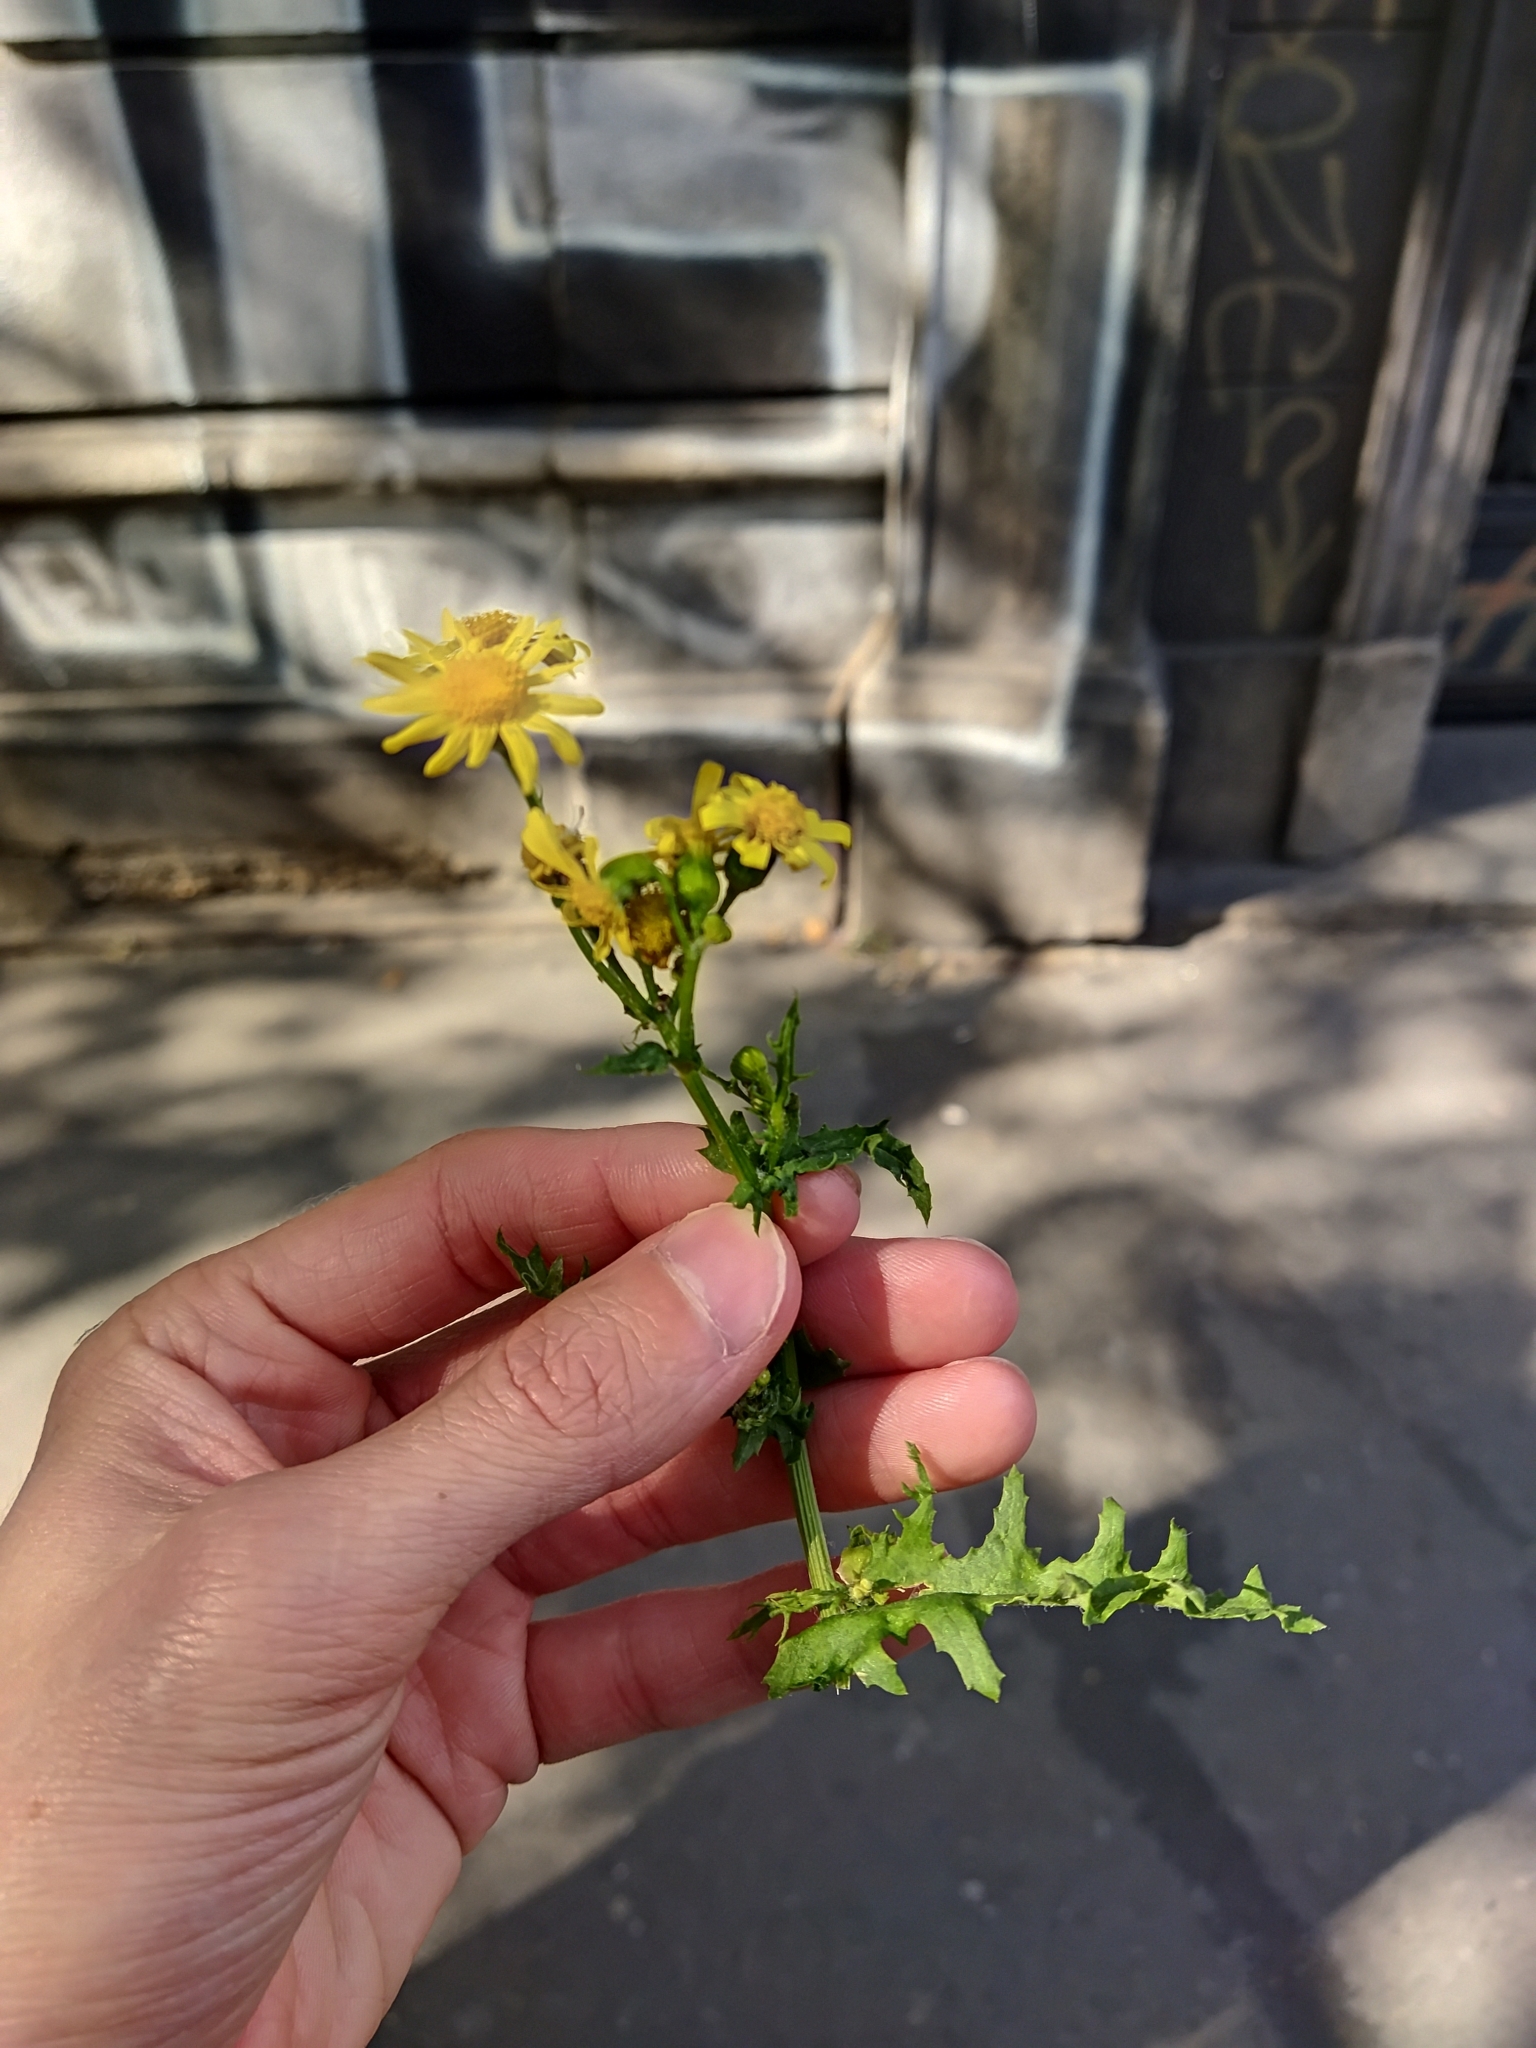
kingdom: Plantae
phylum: Tracheophyta
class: Magnoliopsida
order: Asterales
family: Asteraceae
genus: Senecio
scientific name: Senecio vernalis
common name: Eastern groundsel
